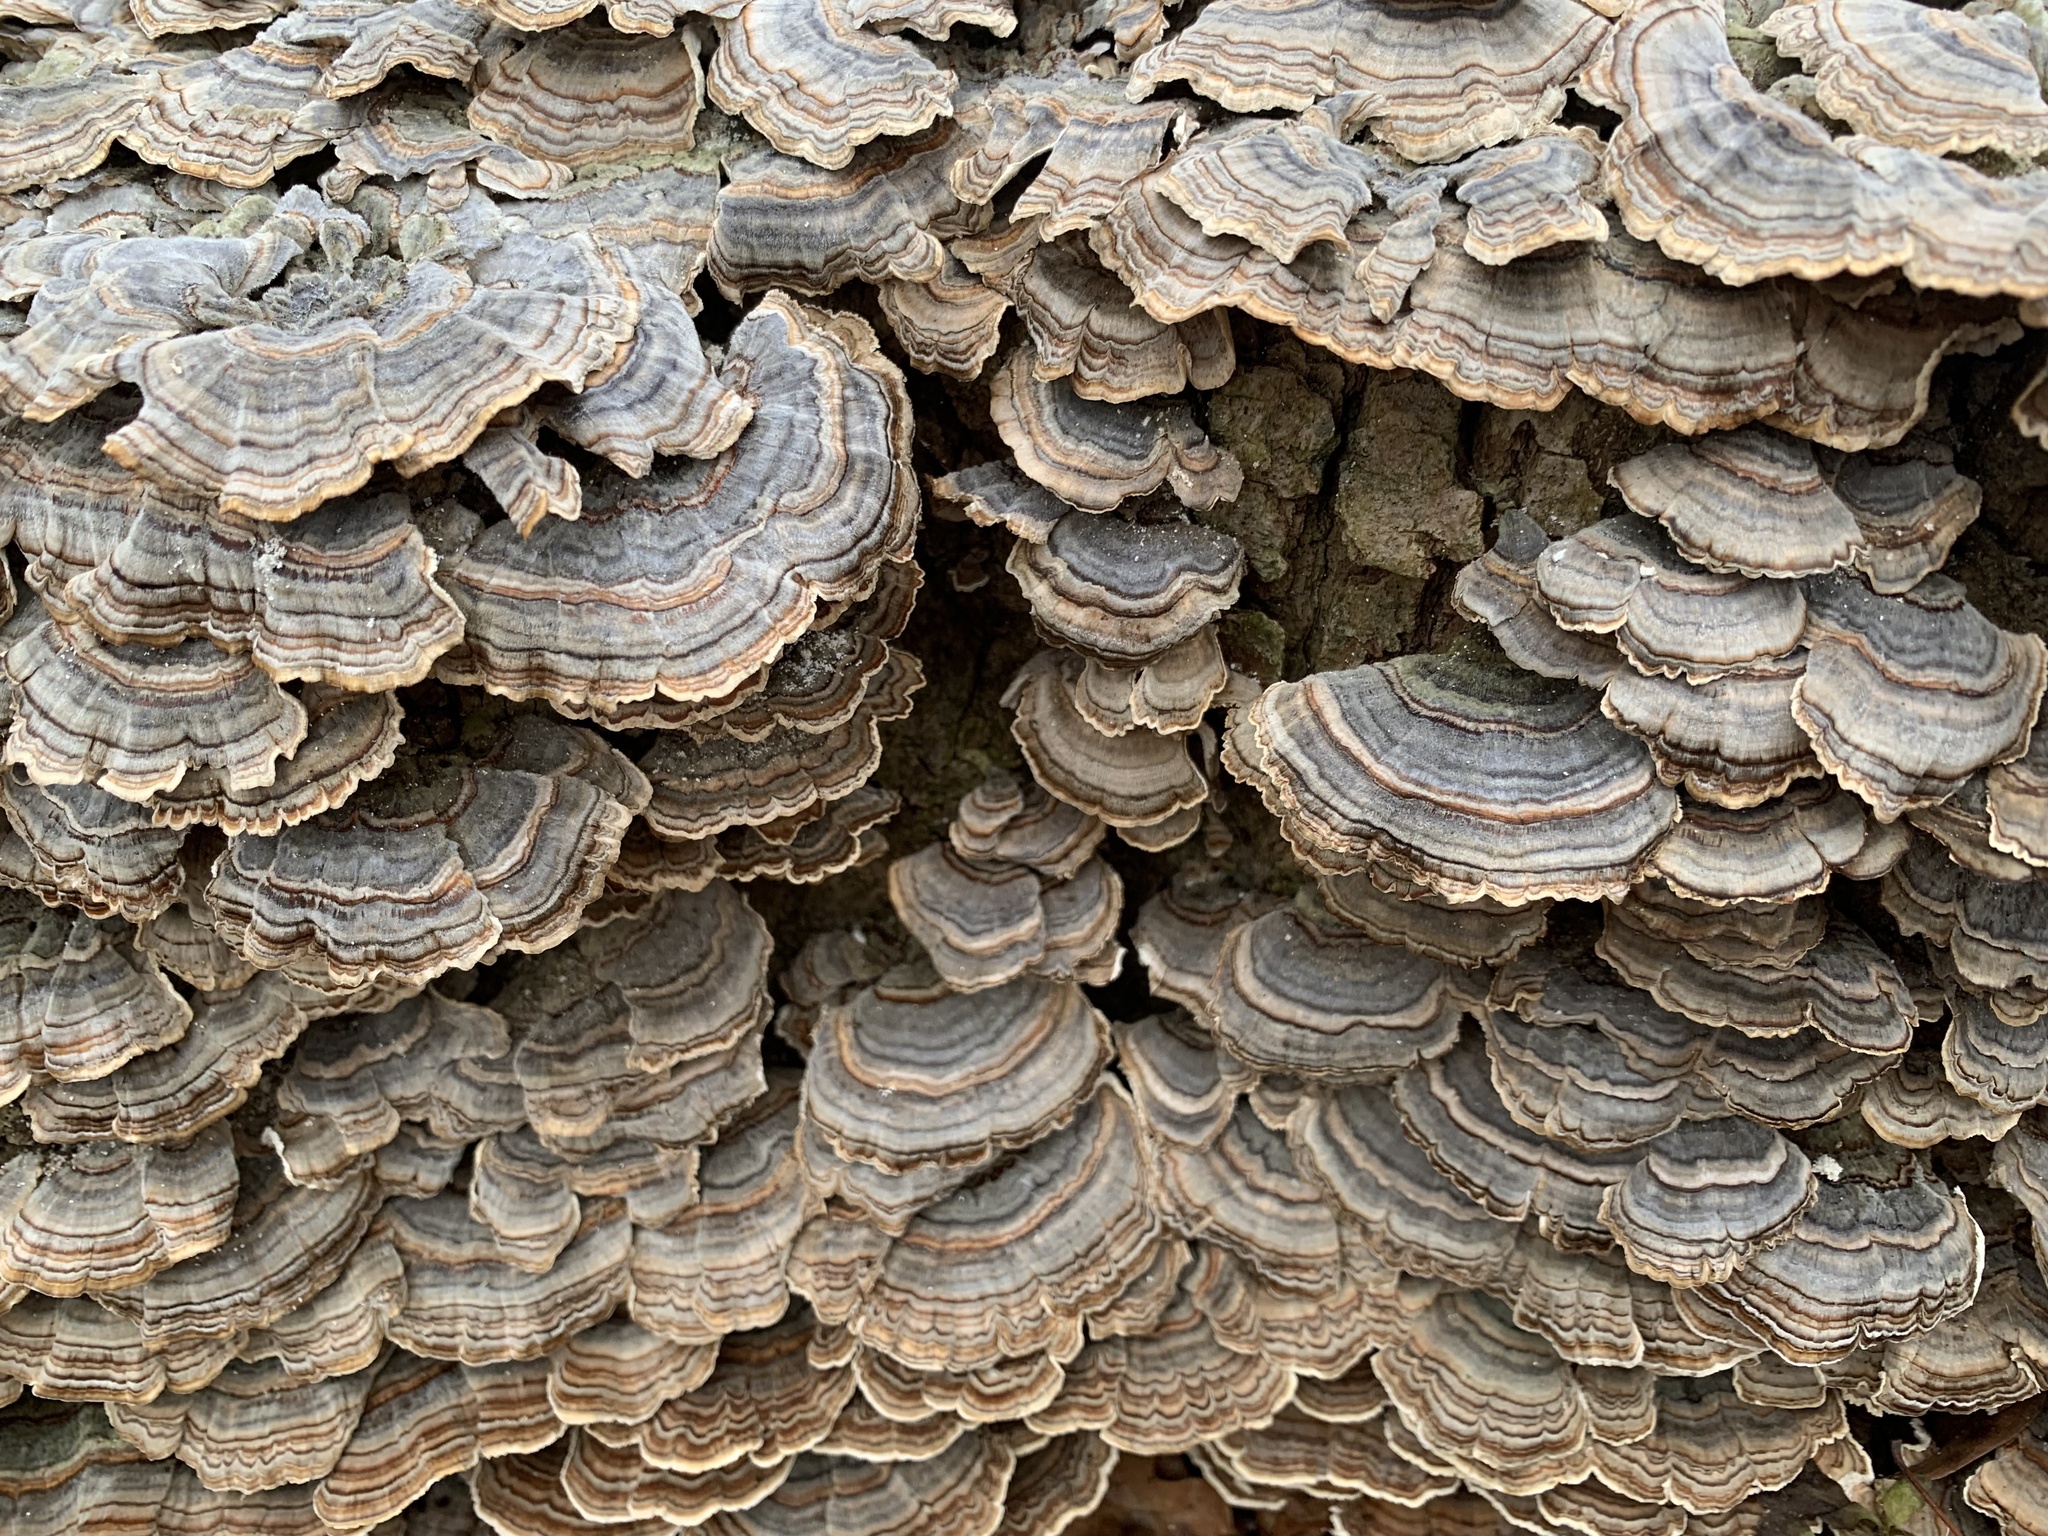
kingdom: Fungi
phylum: Basidiomycota
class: Agaricomycetes
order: Polyporales
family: Polyporaceae
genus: Trametes
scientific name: Trametes versicolor
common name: Turkeytail
